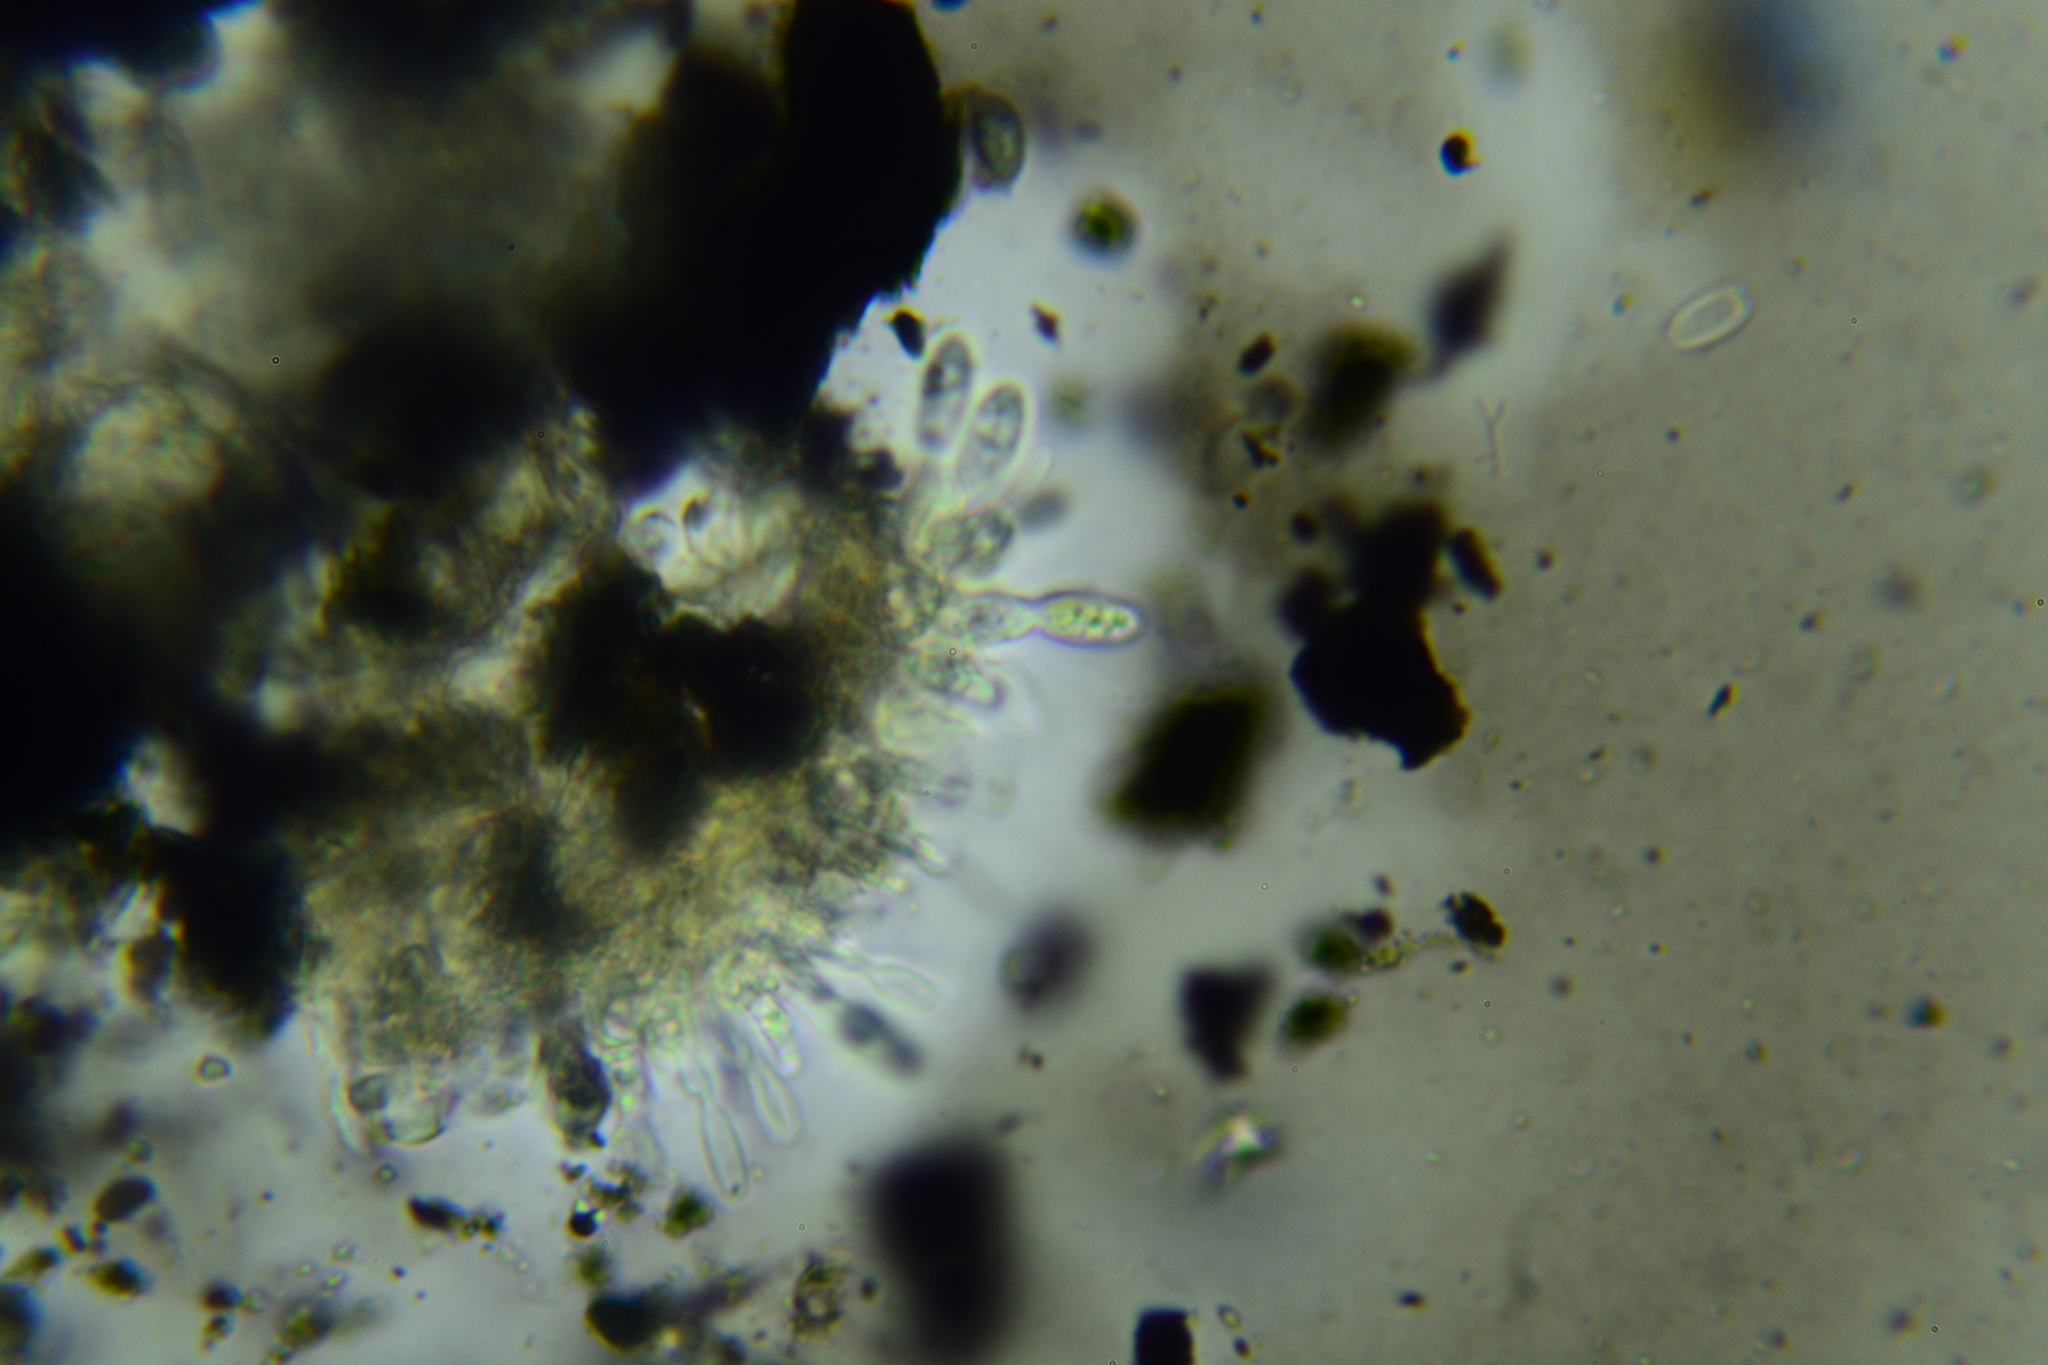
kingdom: Fungi
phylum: Ascomycota
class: Leotiomycetes
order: Helotiales
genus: Cryptocline
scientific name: Cryptocline taxicola
